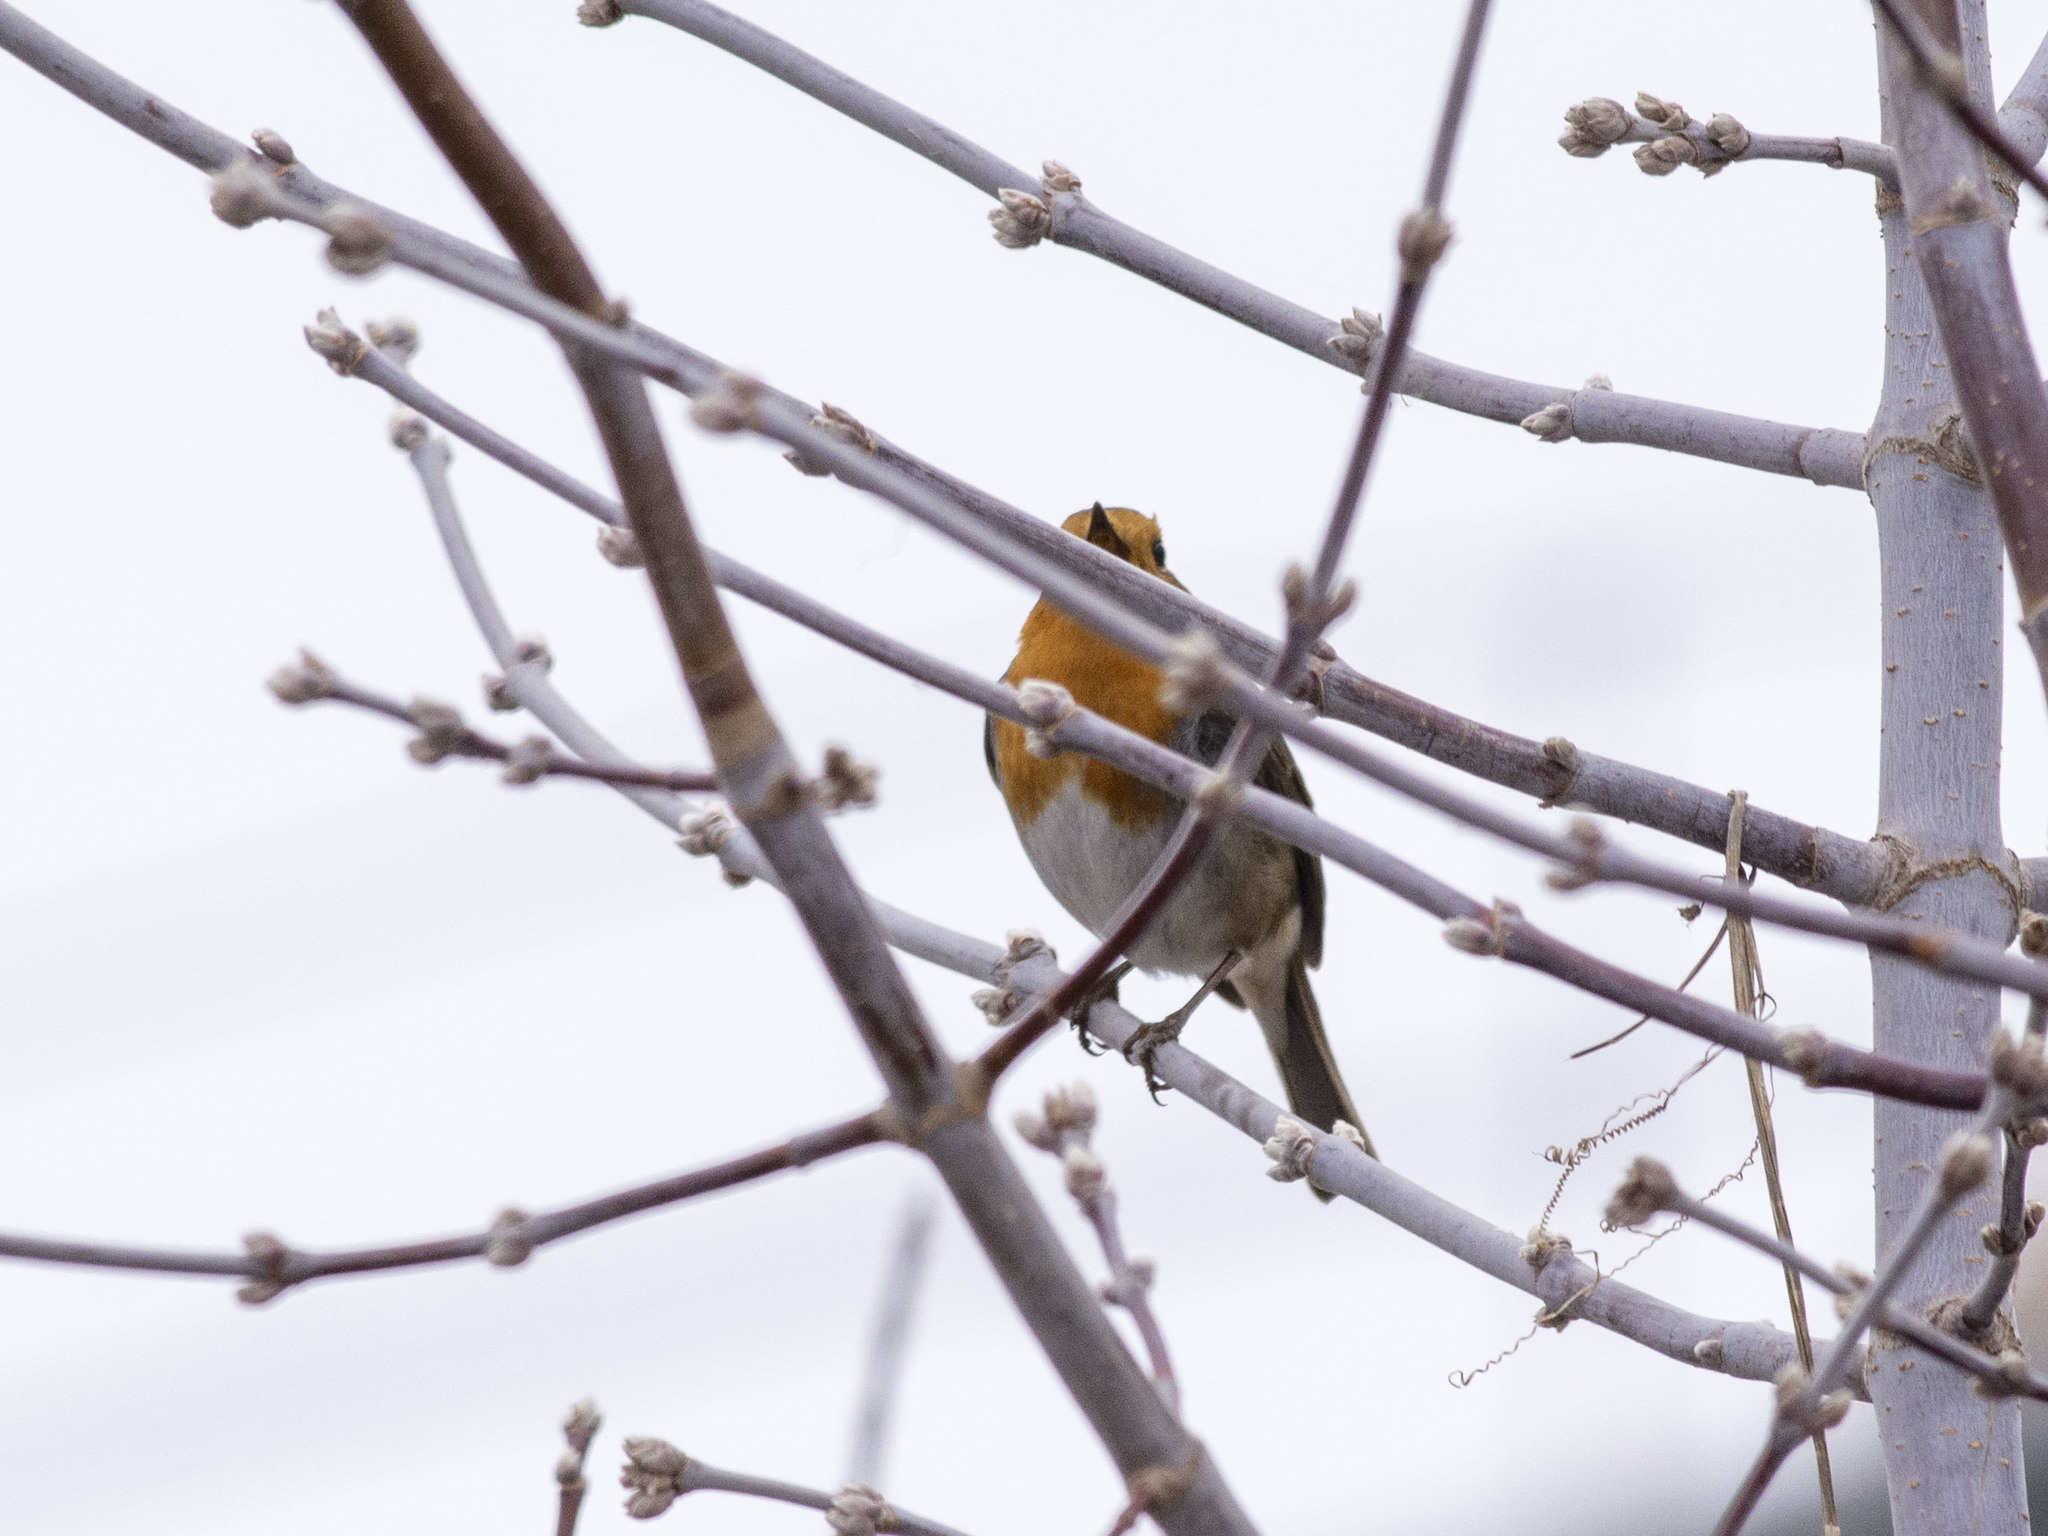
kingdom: Animalia
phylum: Chordata
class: Aves
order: Passeriformes
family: Muscicapidae
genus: Erithacus
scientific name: Erithacus rubecula
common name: European robin
